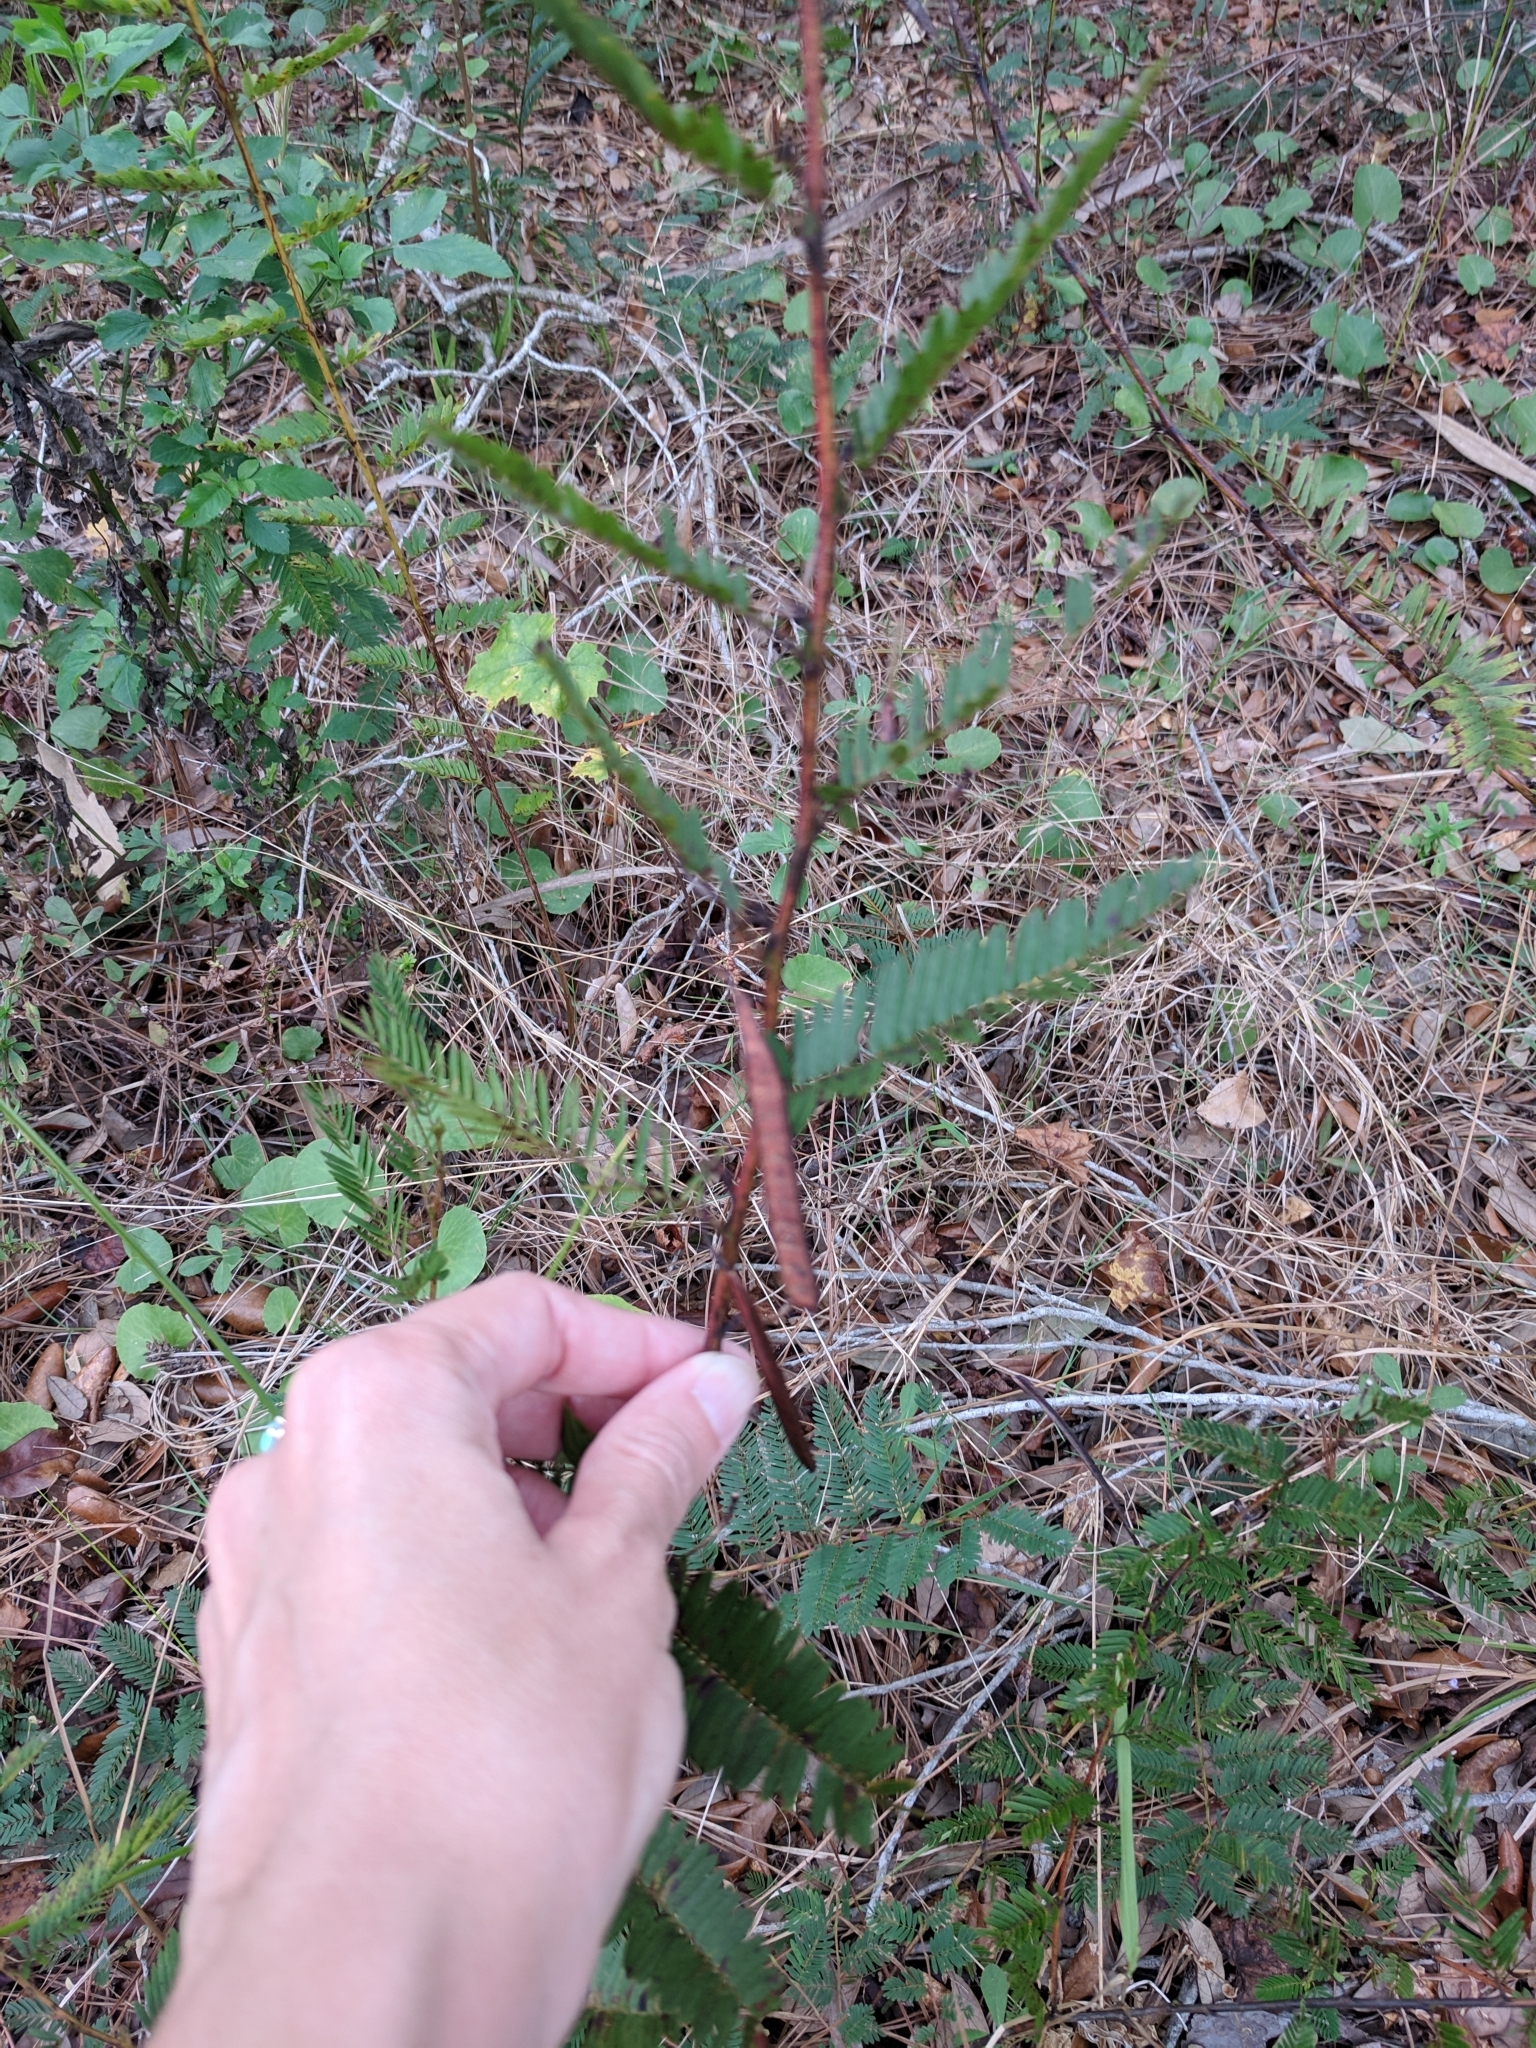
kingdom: Plantae
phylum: Tracheophyta
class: Magnoliopsida
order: Fabales
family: Fabaceae
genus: Chamaecrista
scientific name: Chamaecrista fasciculata
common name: Golden cassia
